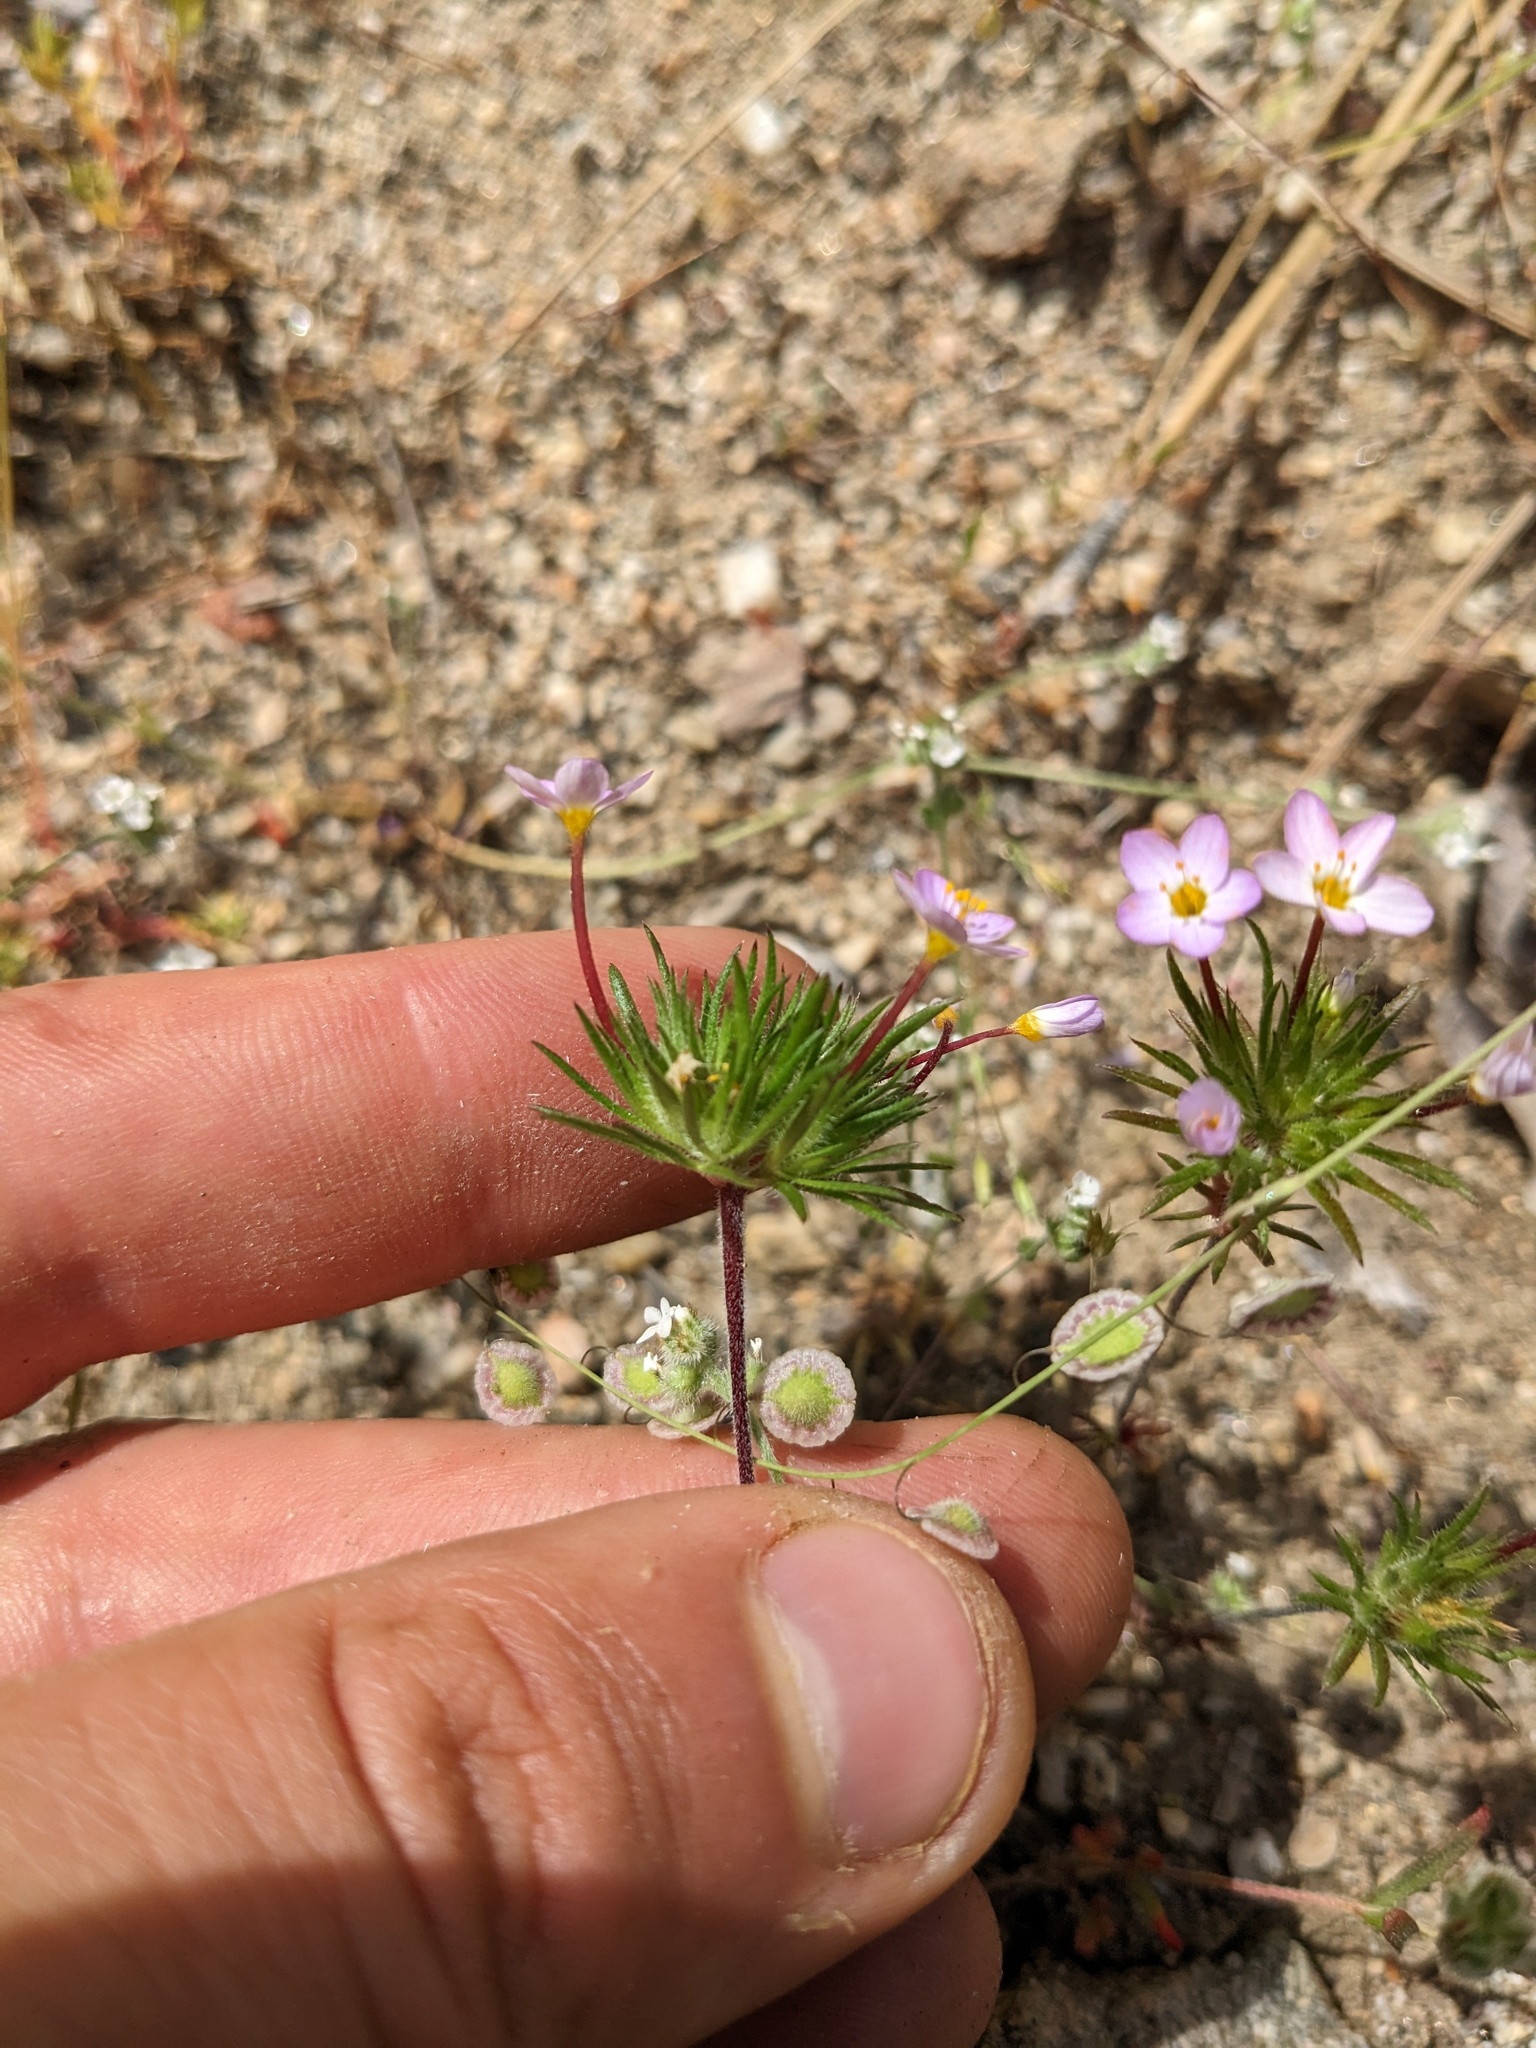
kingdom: Plantae
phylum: Tracheophyta
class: Magnoliopsida
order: Ericales
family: Polemoniaceae
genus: Leptosiphon
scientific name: Leptosiphon bicolor
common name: True babystars
